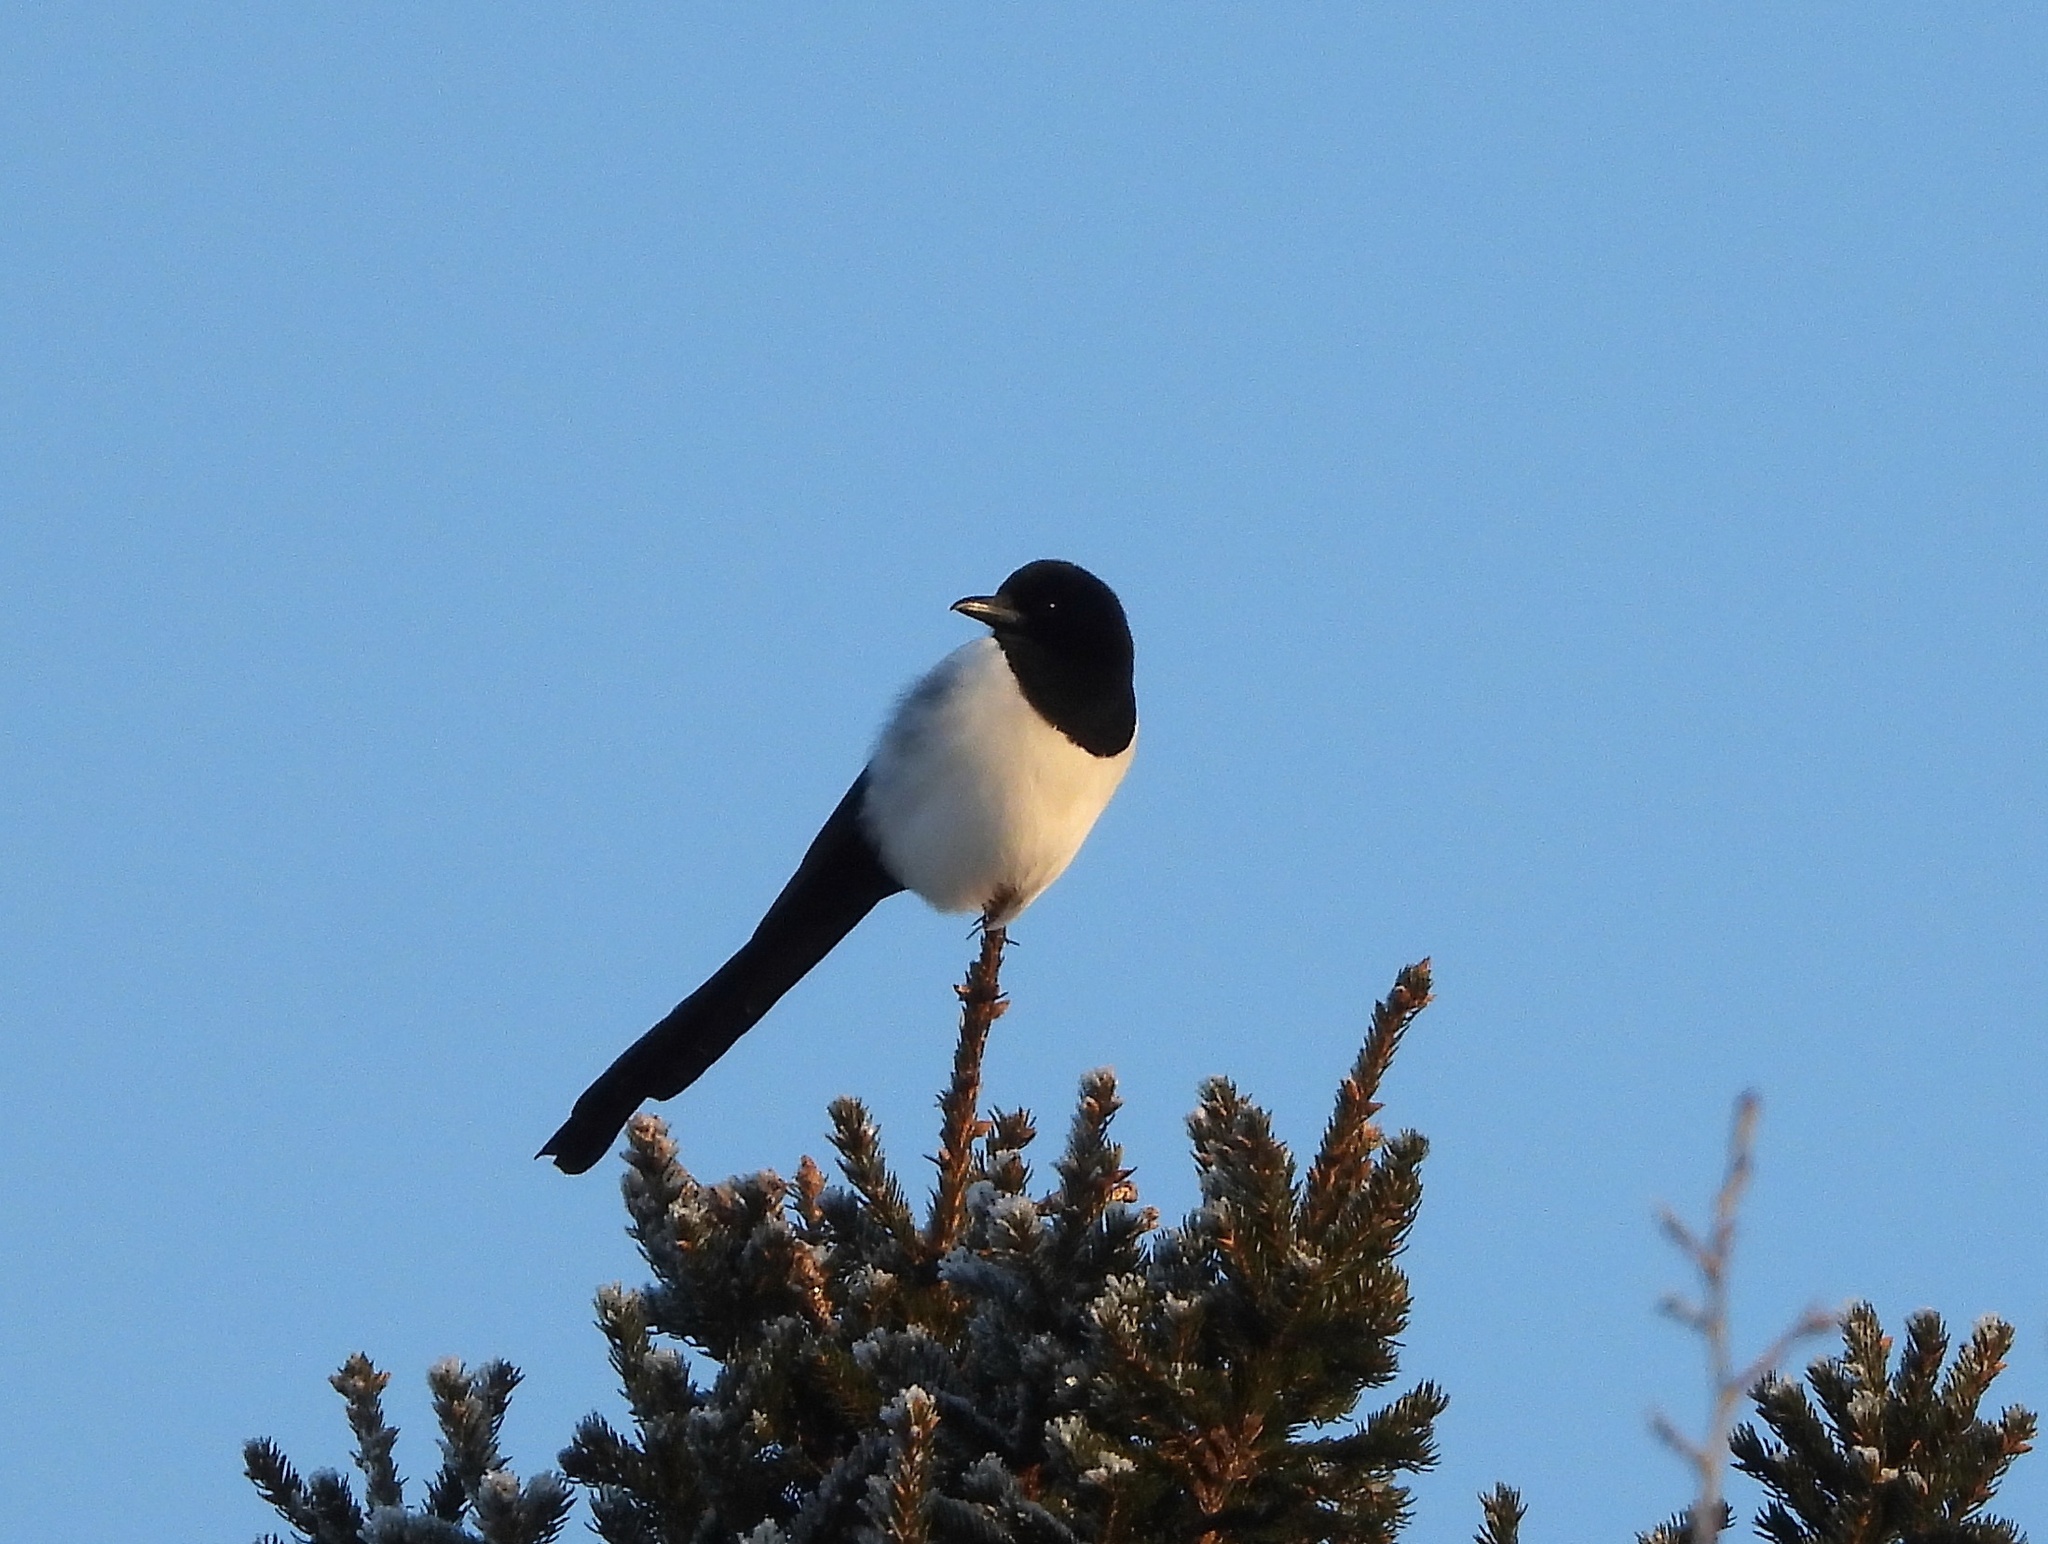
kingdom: Animalia
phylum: Chordata
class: Aves
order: Passeriformes
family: Corvidae
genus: Pica
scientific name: Pica pica
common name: Eurasian magpie
